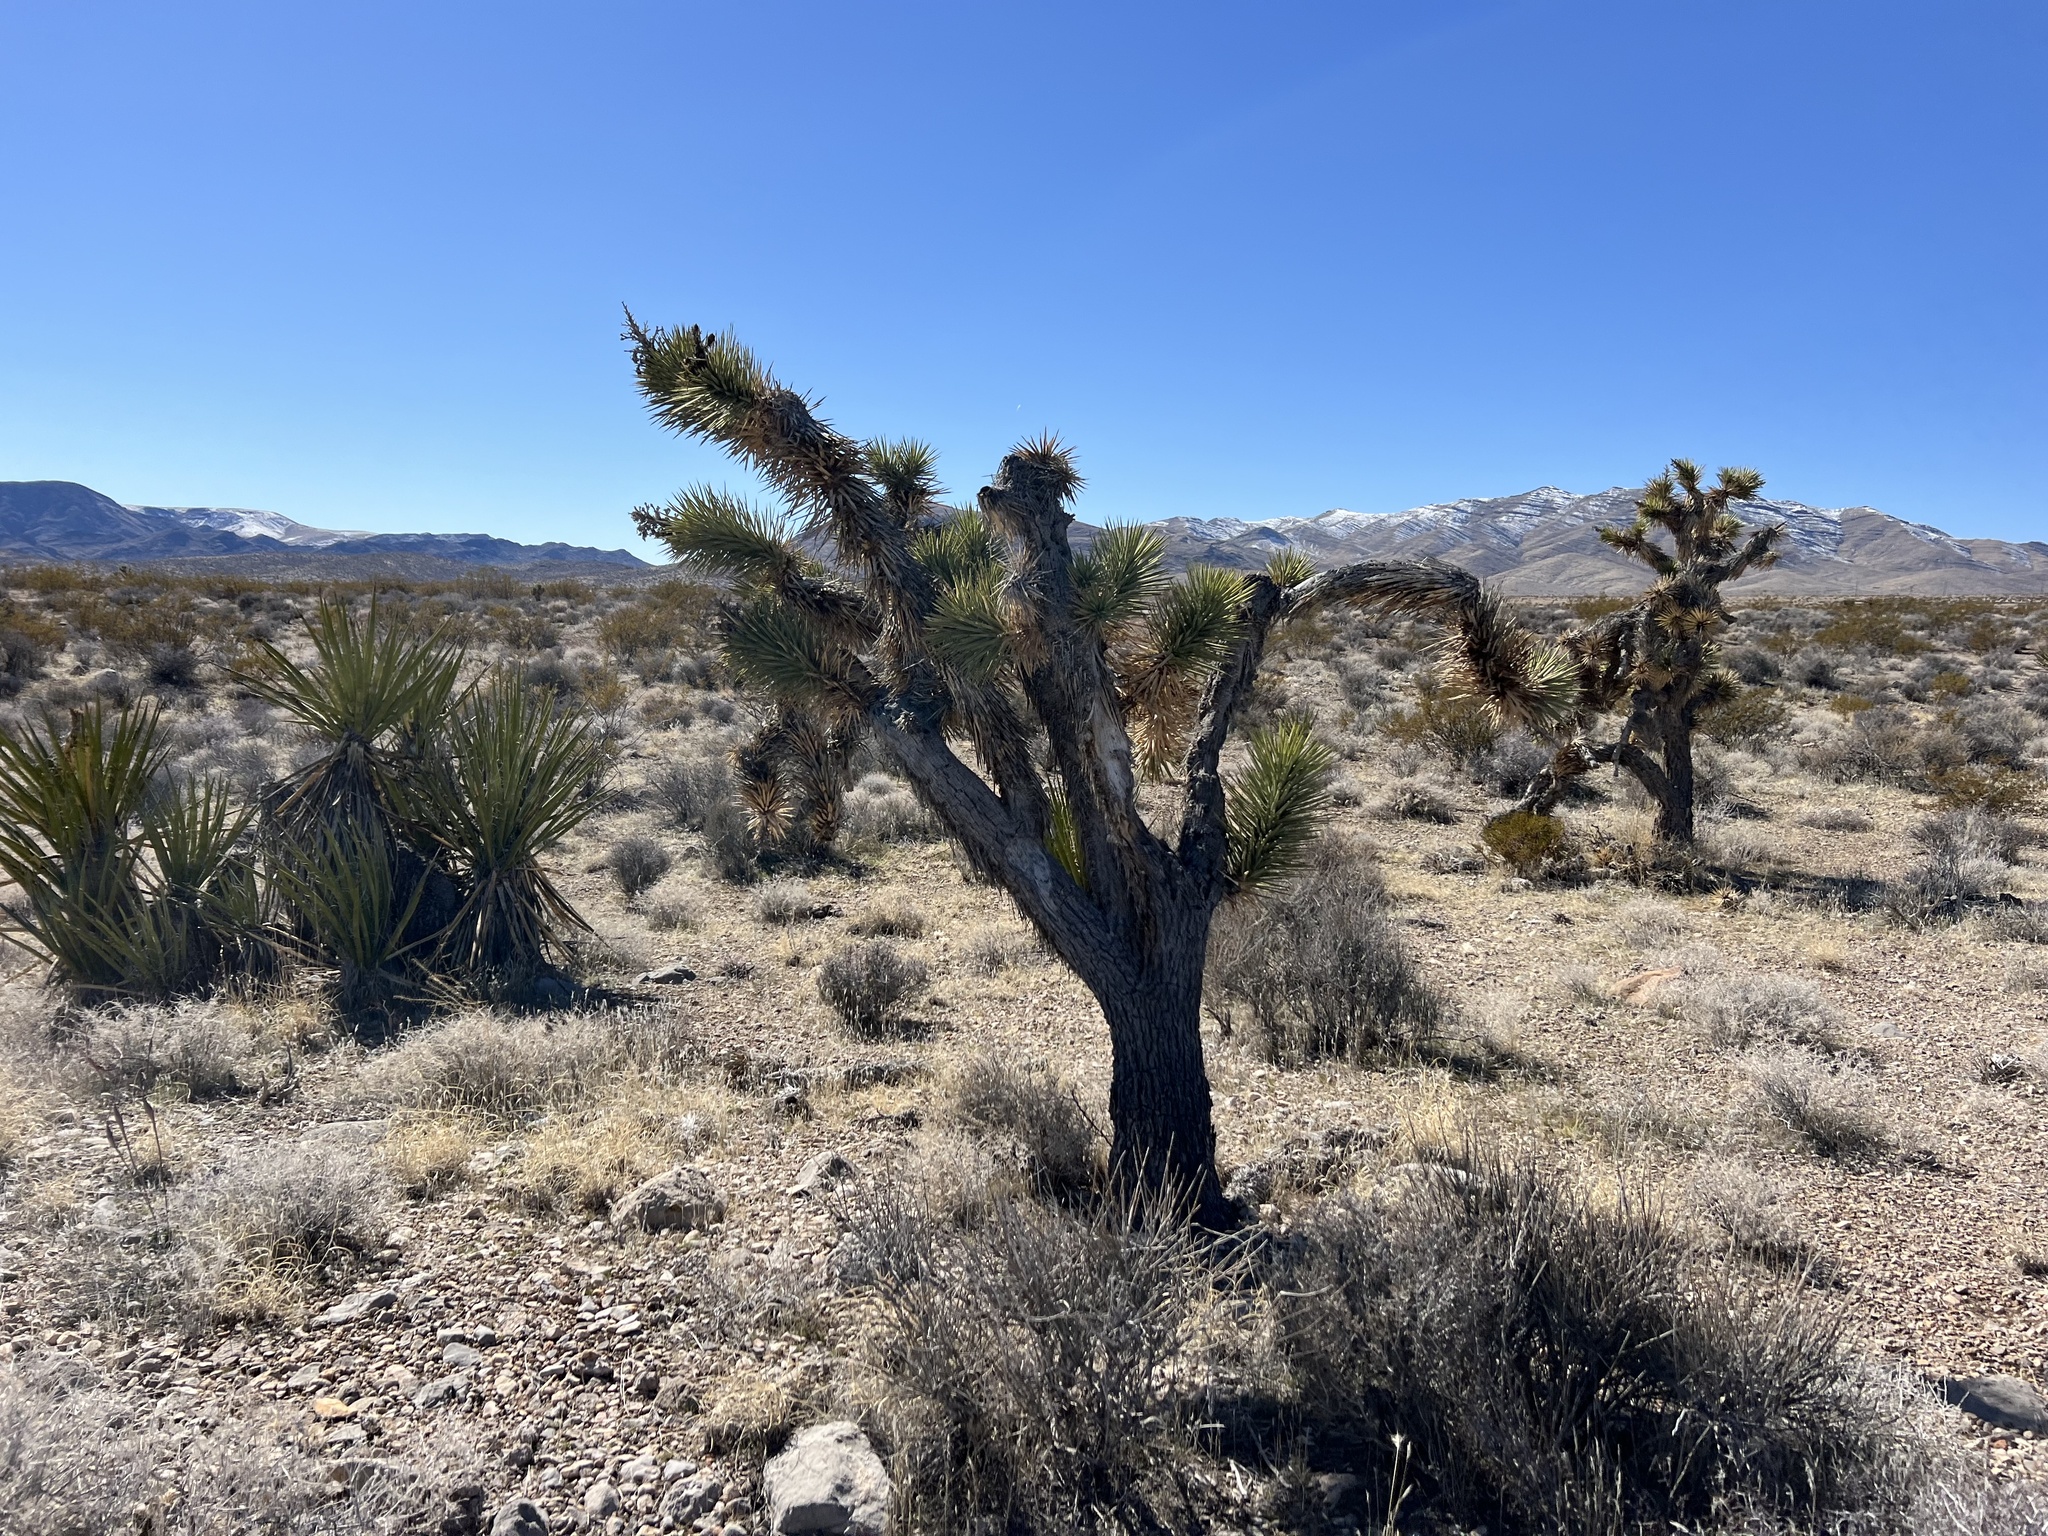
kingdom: Plantae
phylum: Tracheophyta
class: Liliopsida
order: Asparagales
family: Asparagaceae
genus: Yucca
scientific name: Yucca brevifolia
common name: Joshua tree
